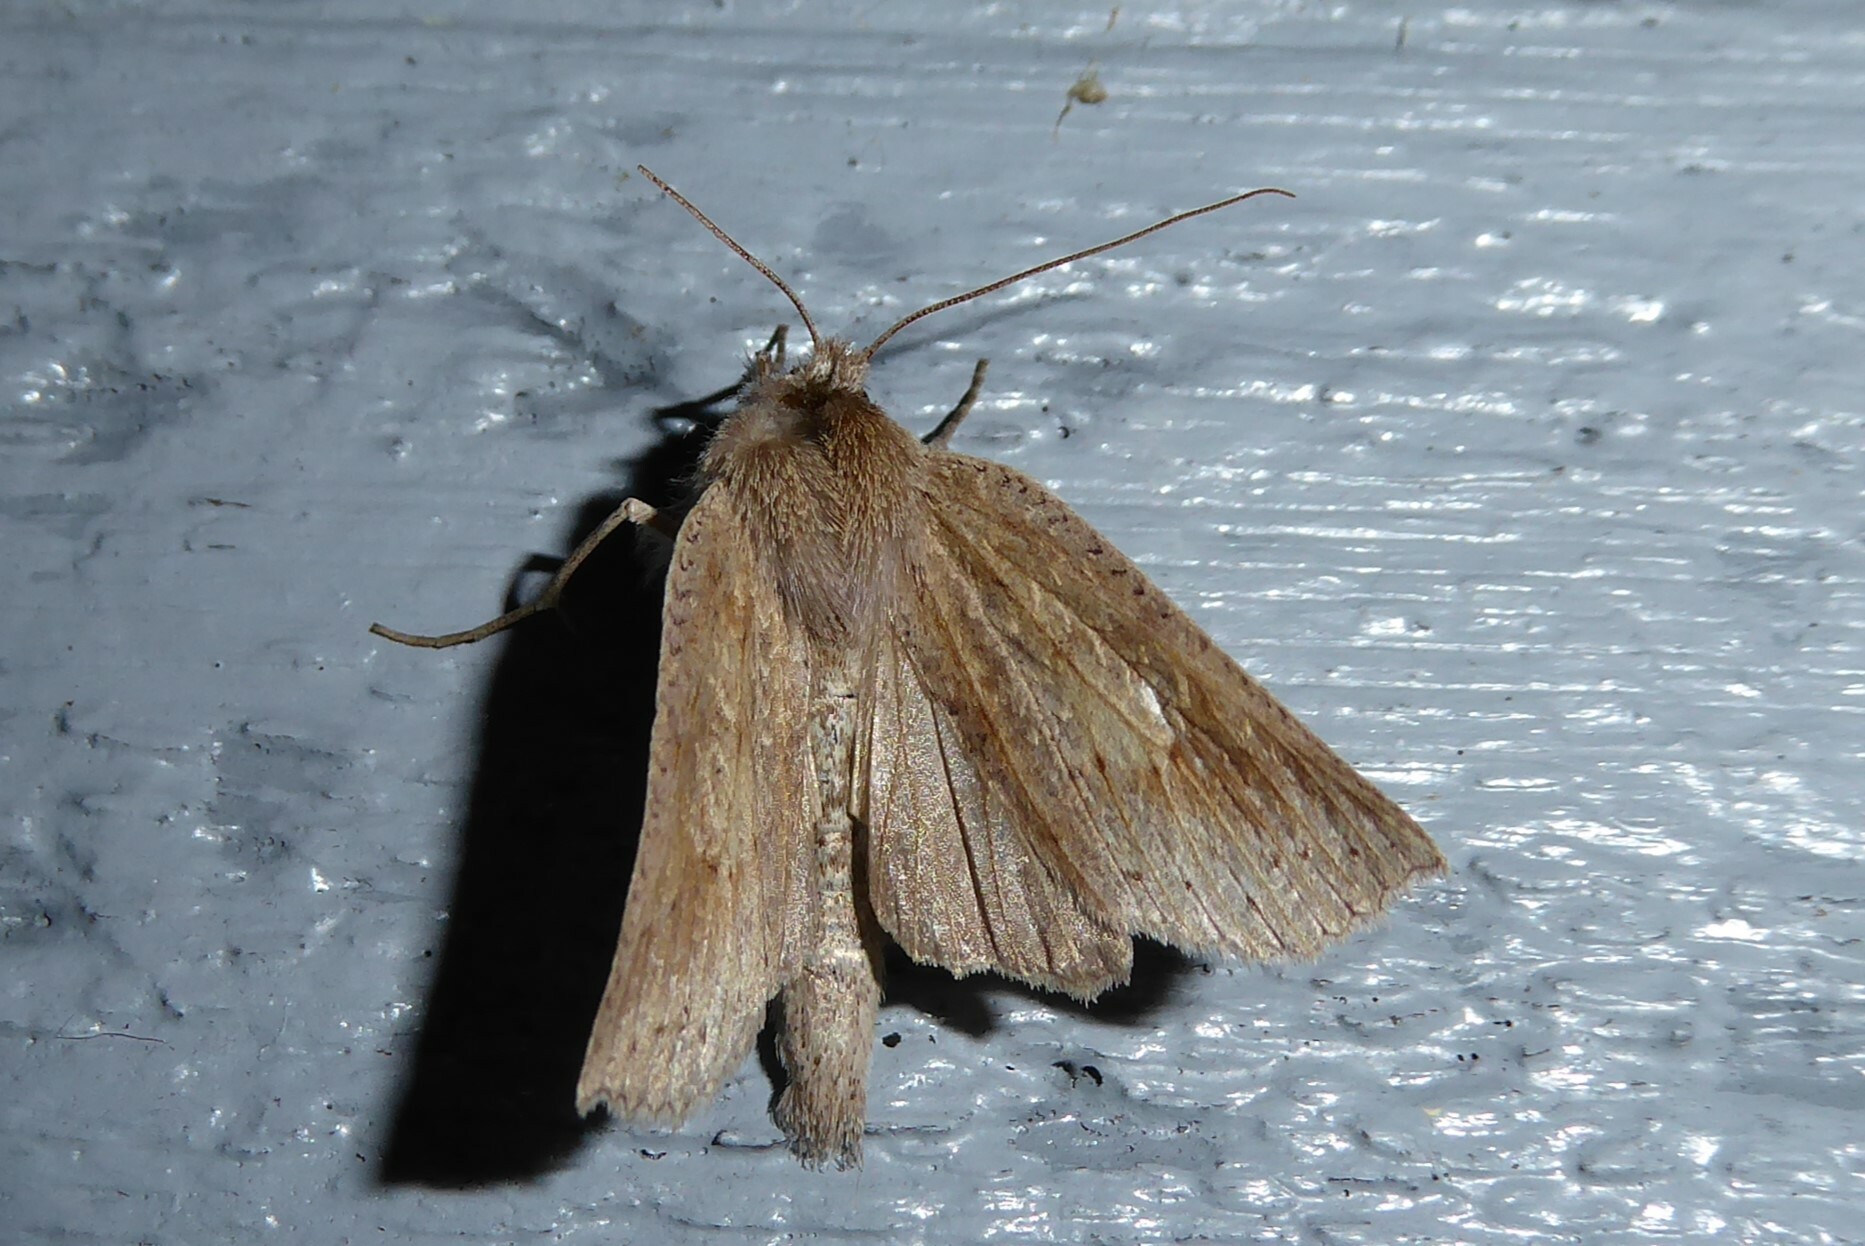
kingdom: Animalia
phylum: Arthropoda
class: Insecta
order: Lepidoptera
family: Geometridae
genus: Declana
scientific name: Declana leptomera
